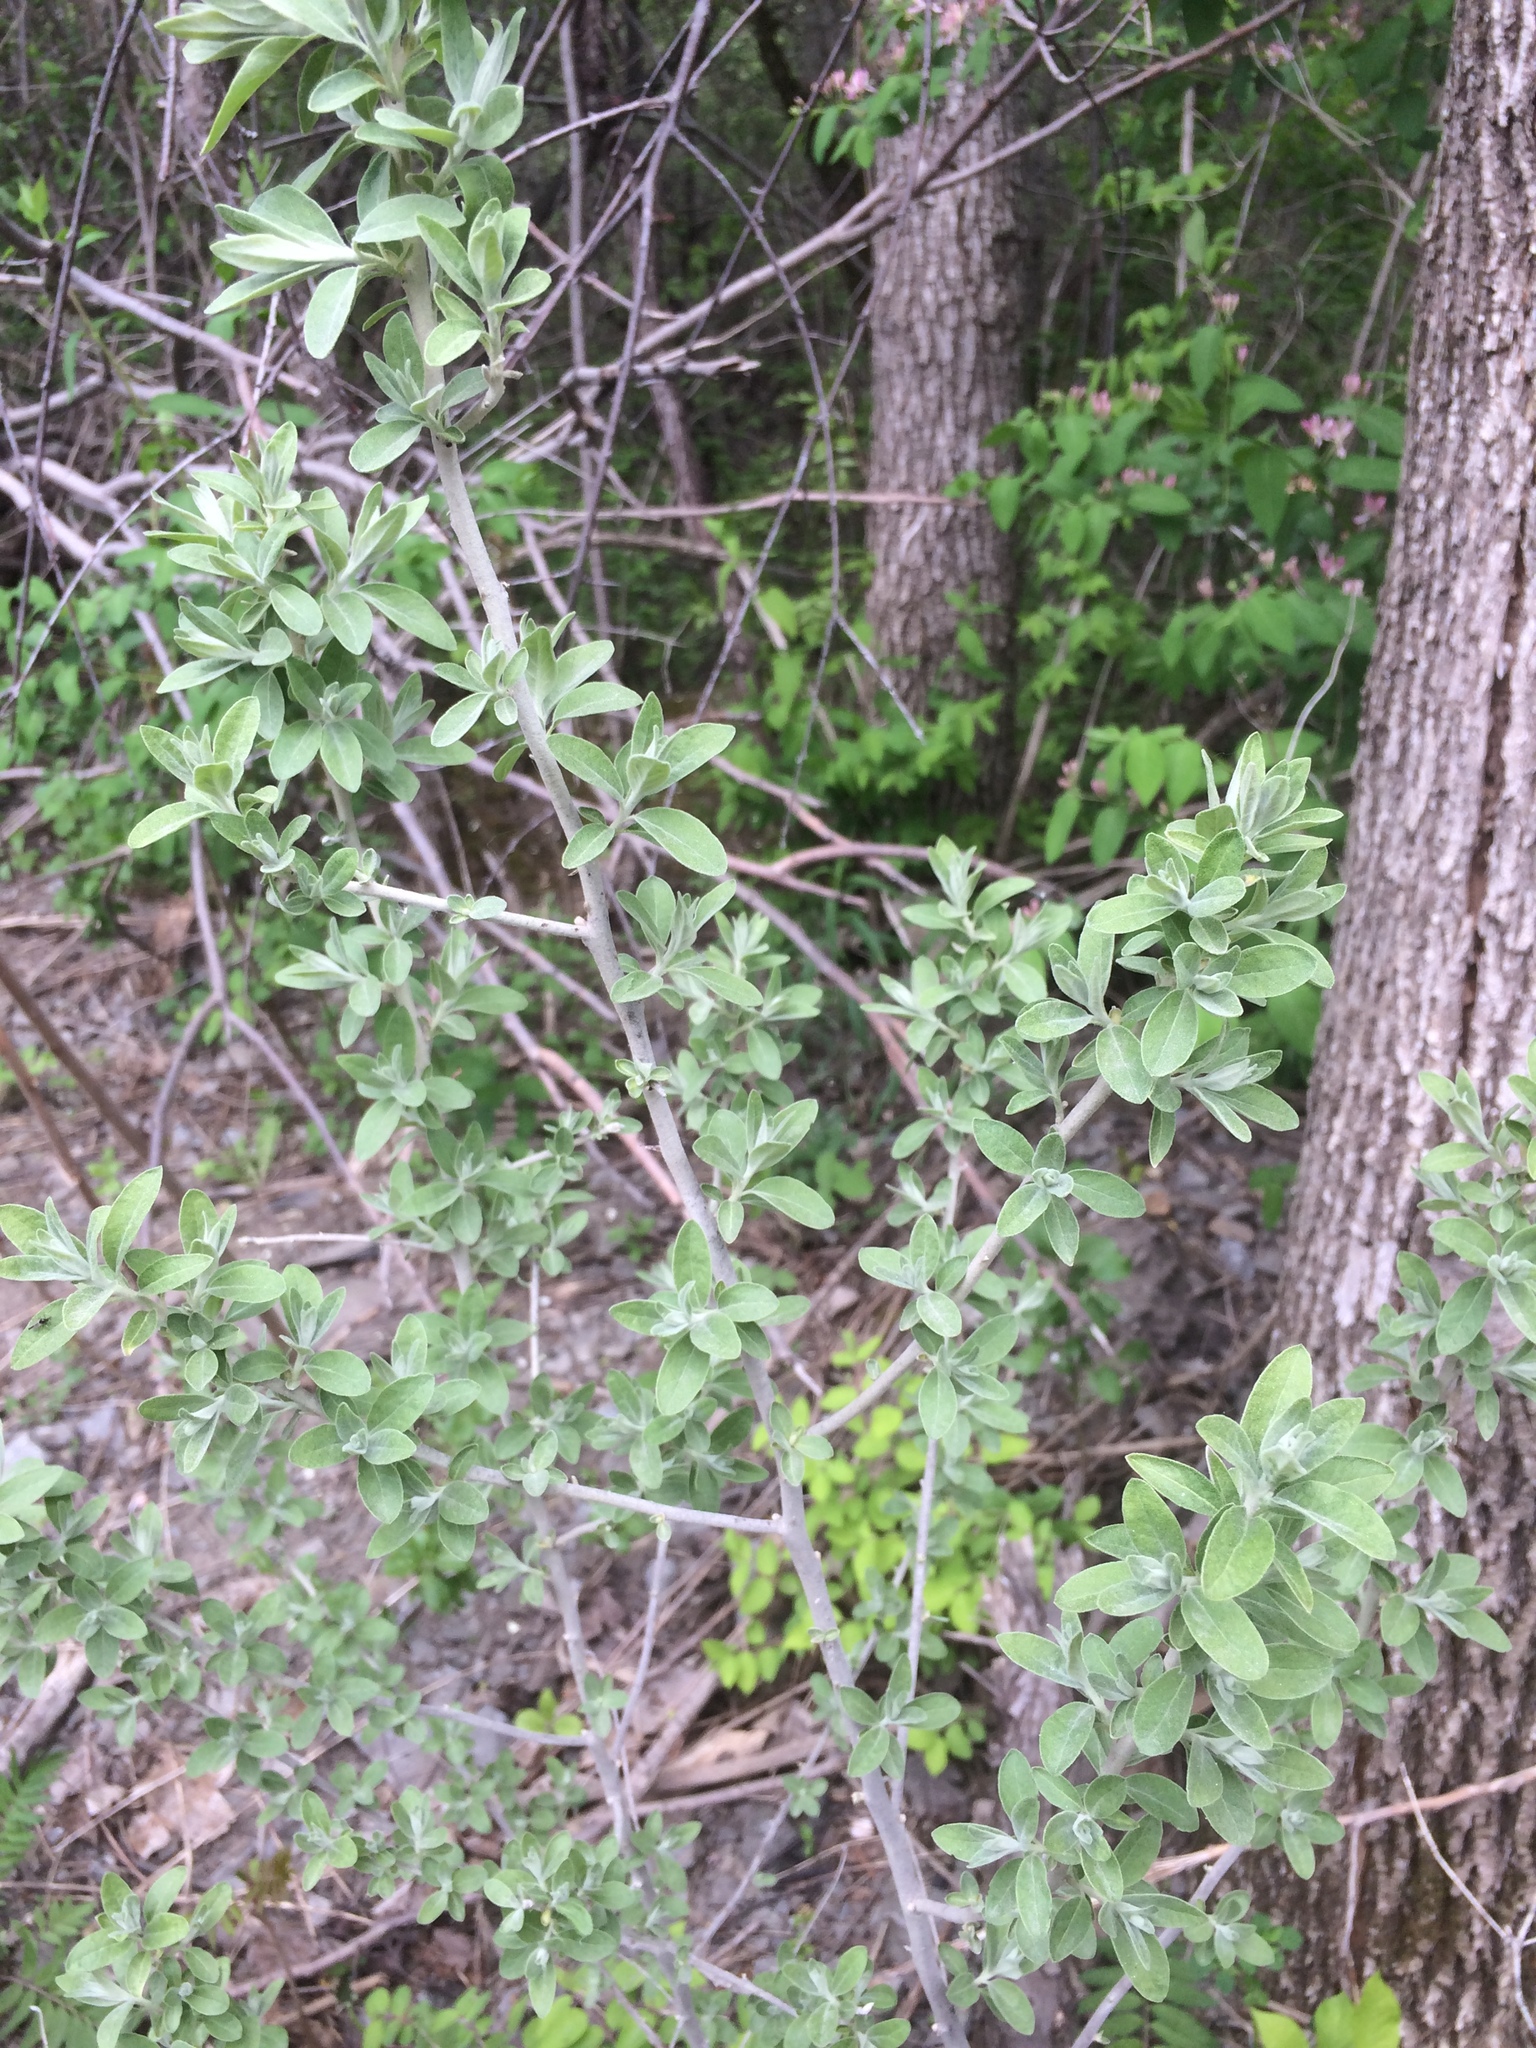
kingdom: Plantae
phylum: Tracheophyta
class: Magnoliopsida
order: Rosales
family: Elaeagnaceae
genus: Elaeagnus
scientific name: Elaeagnus umbellata
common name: Autumn olive
